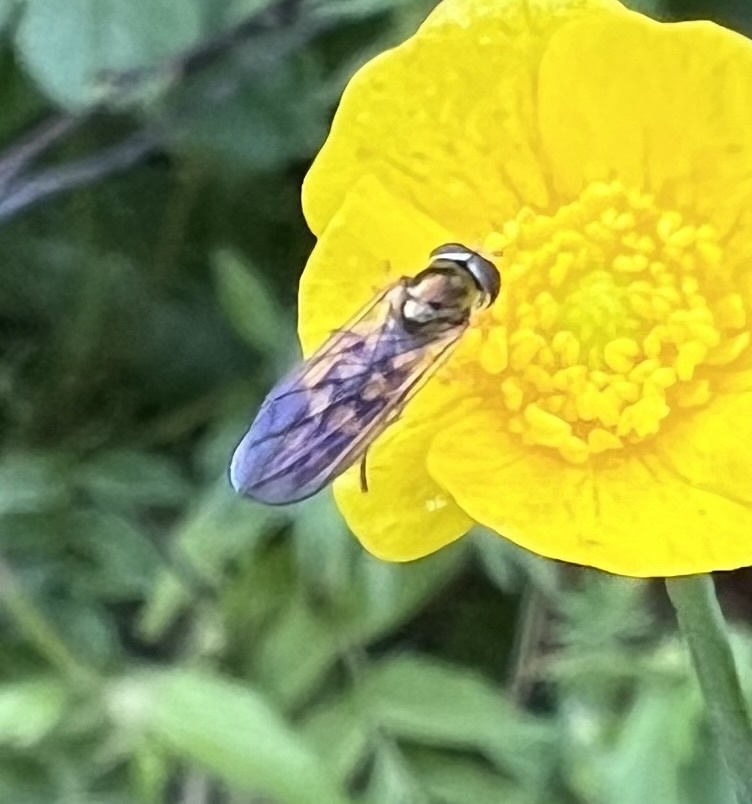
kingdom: Animalia
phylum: Arthropoda
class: Insecta
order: Diptera
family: Syrphidae
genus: Melanostoma
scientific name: Melanostoma mellina
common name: Hover fly
